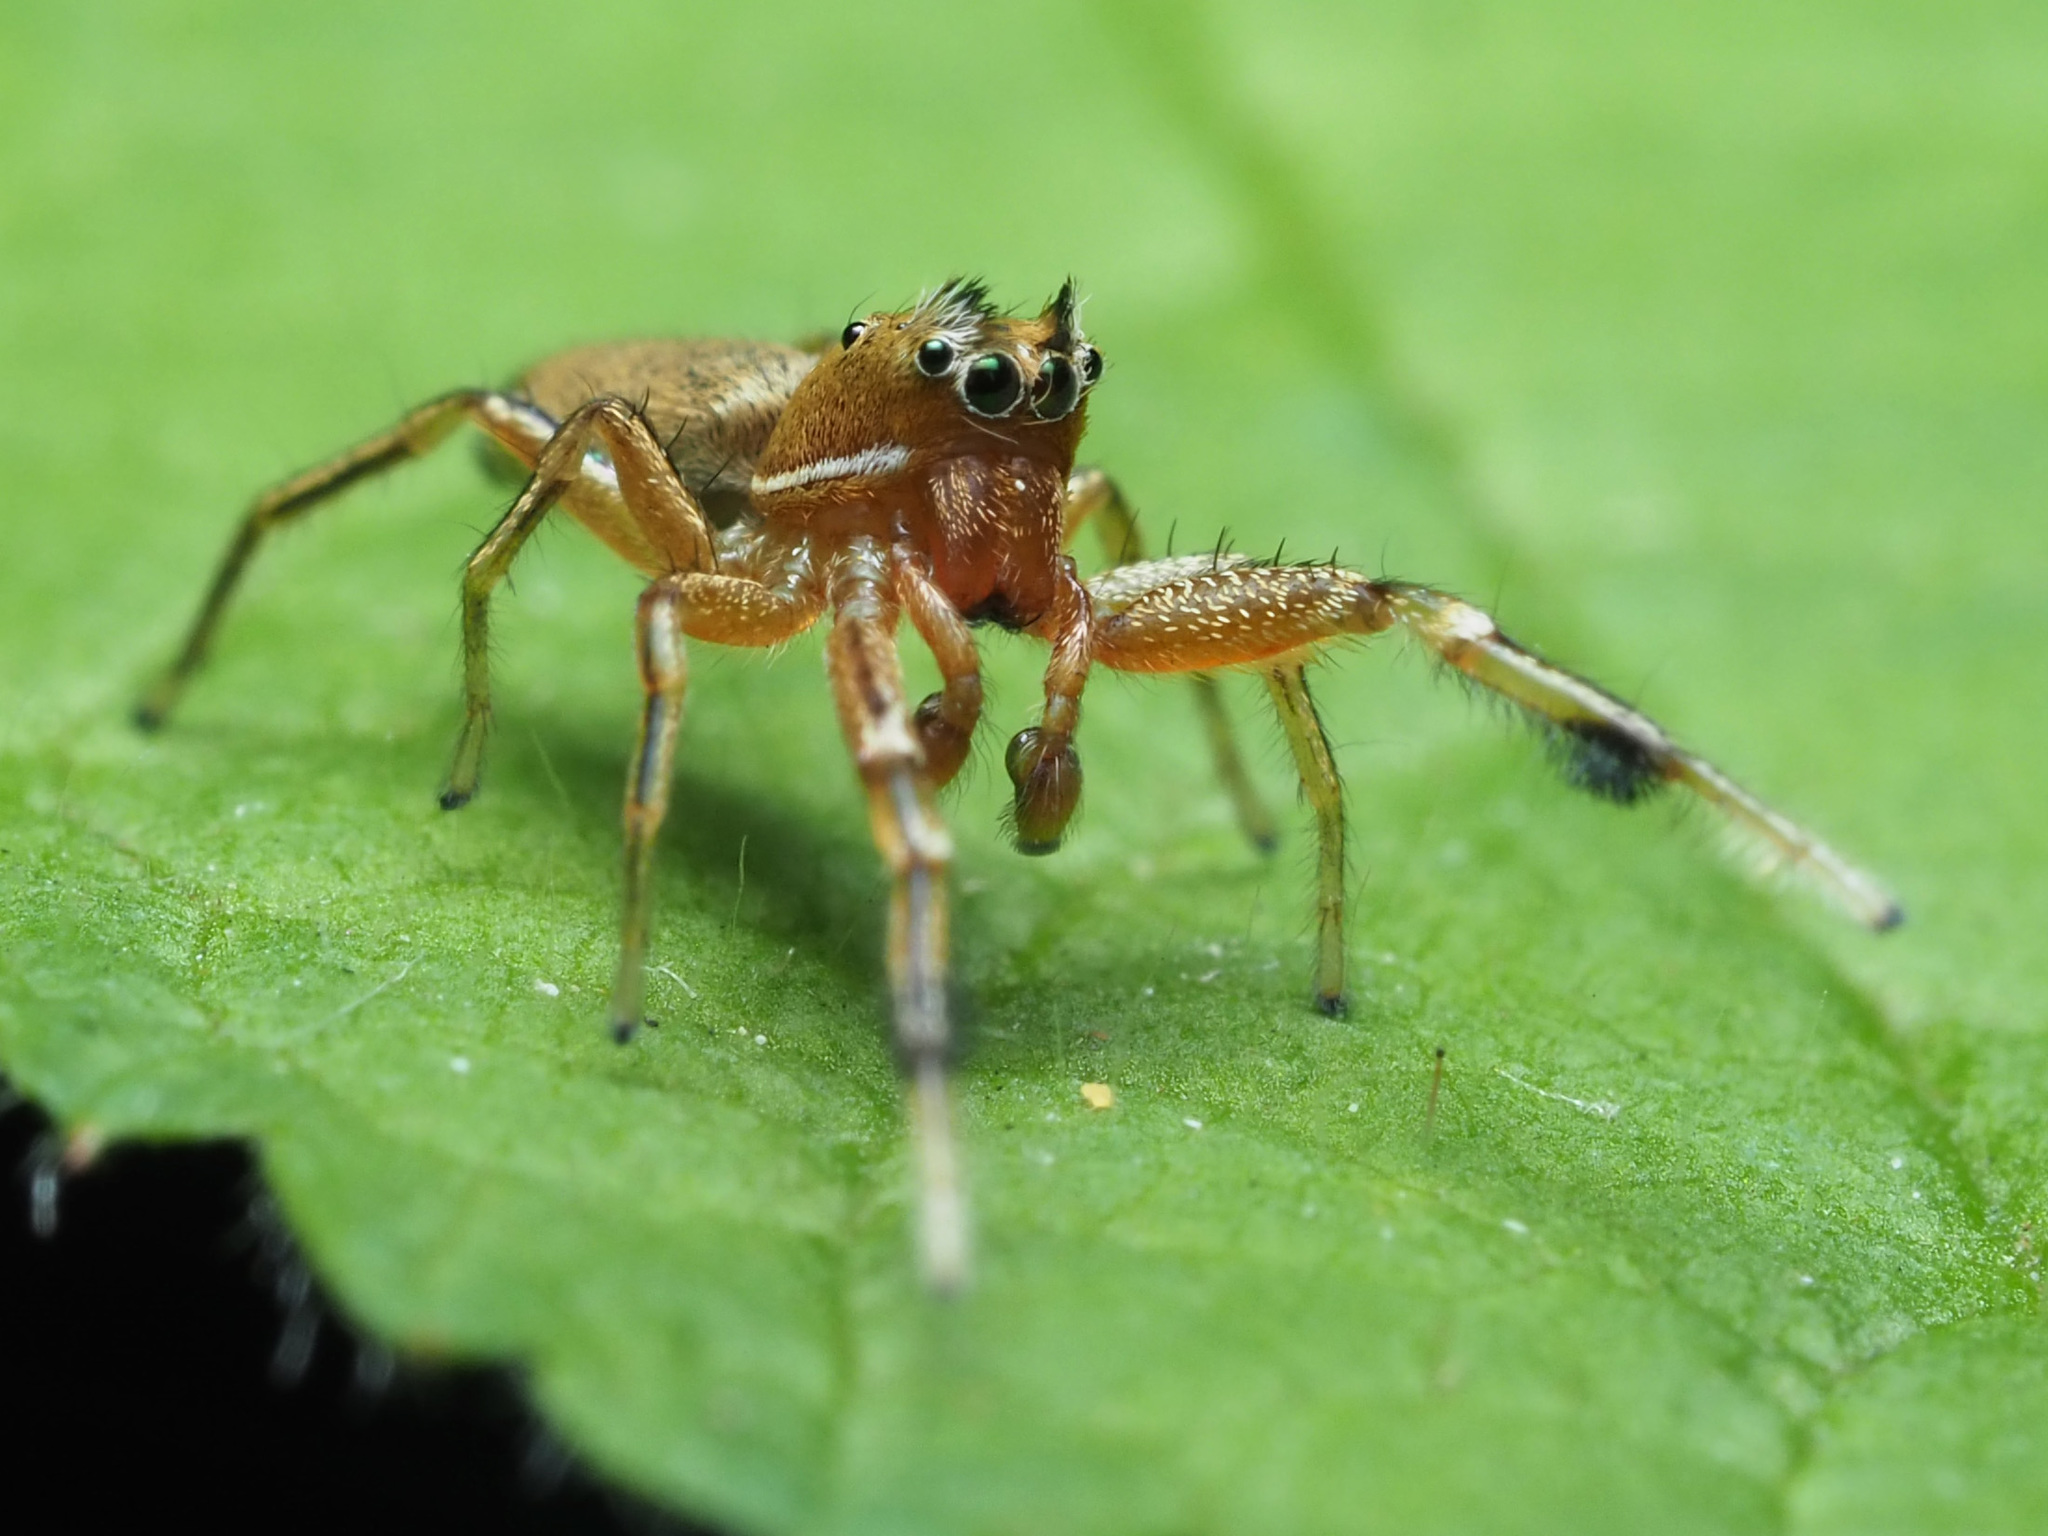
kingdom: Animalia
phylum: Arthropoda
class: Arachnida
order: Araneae
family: Salticidae
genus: Tutelina
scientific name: Tutelina elegans
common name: Thin-spined jumping spider
